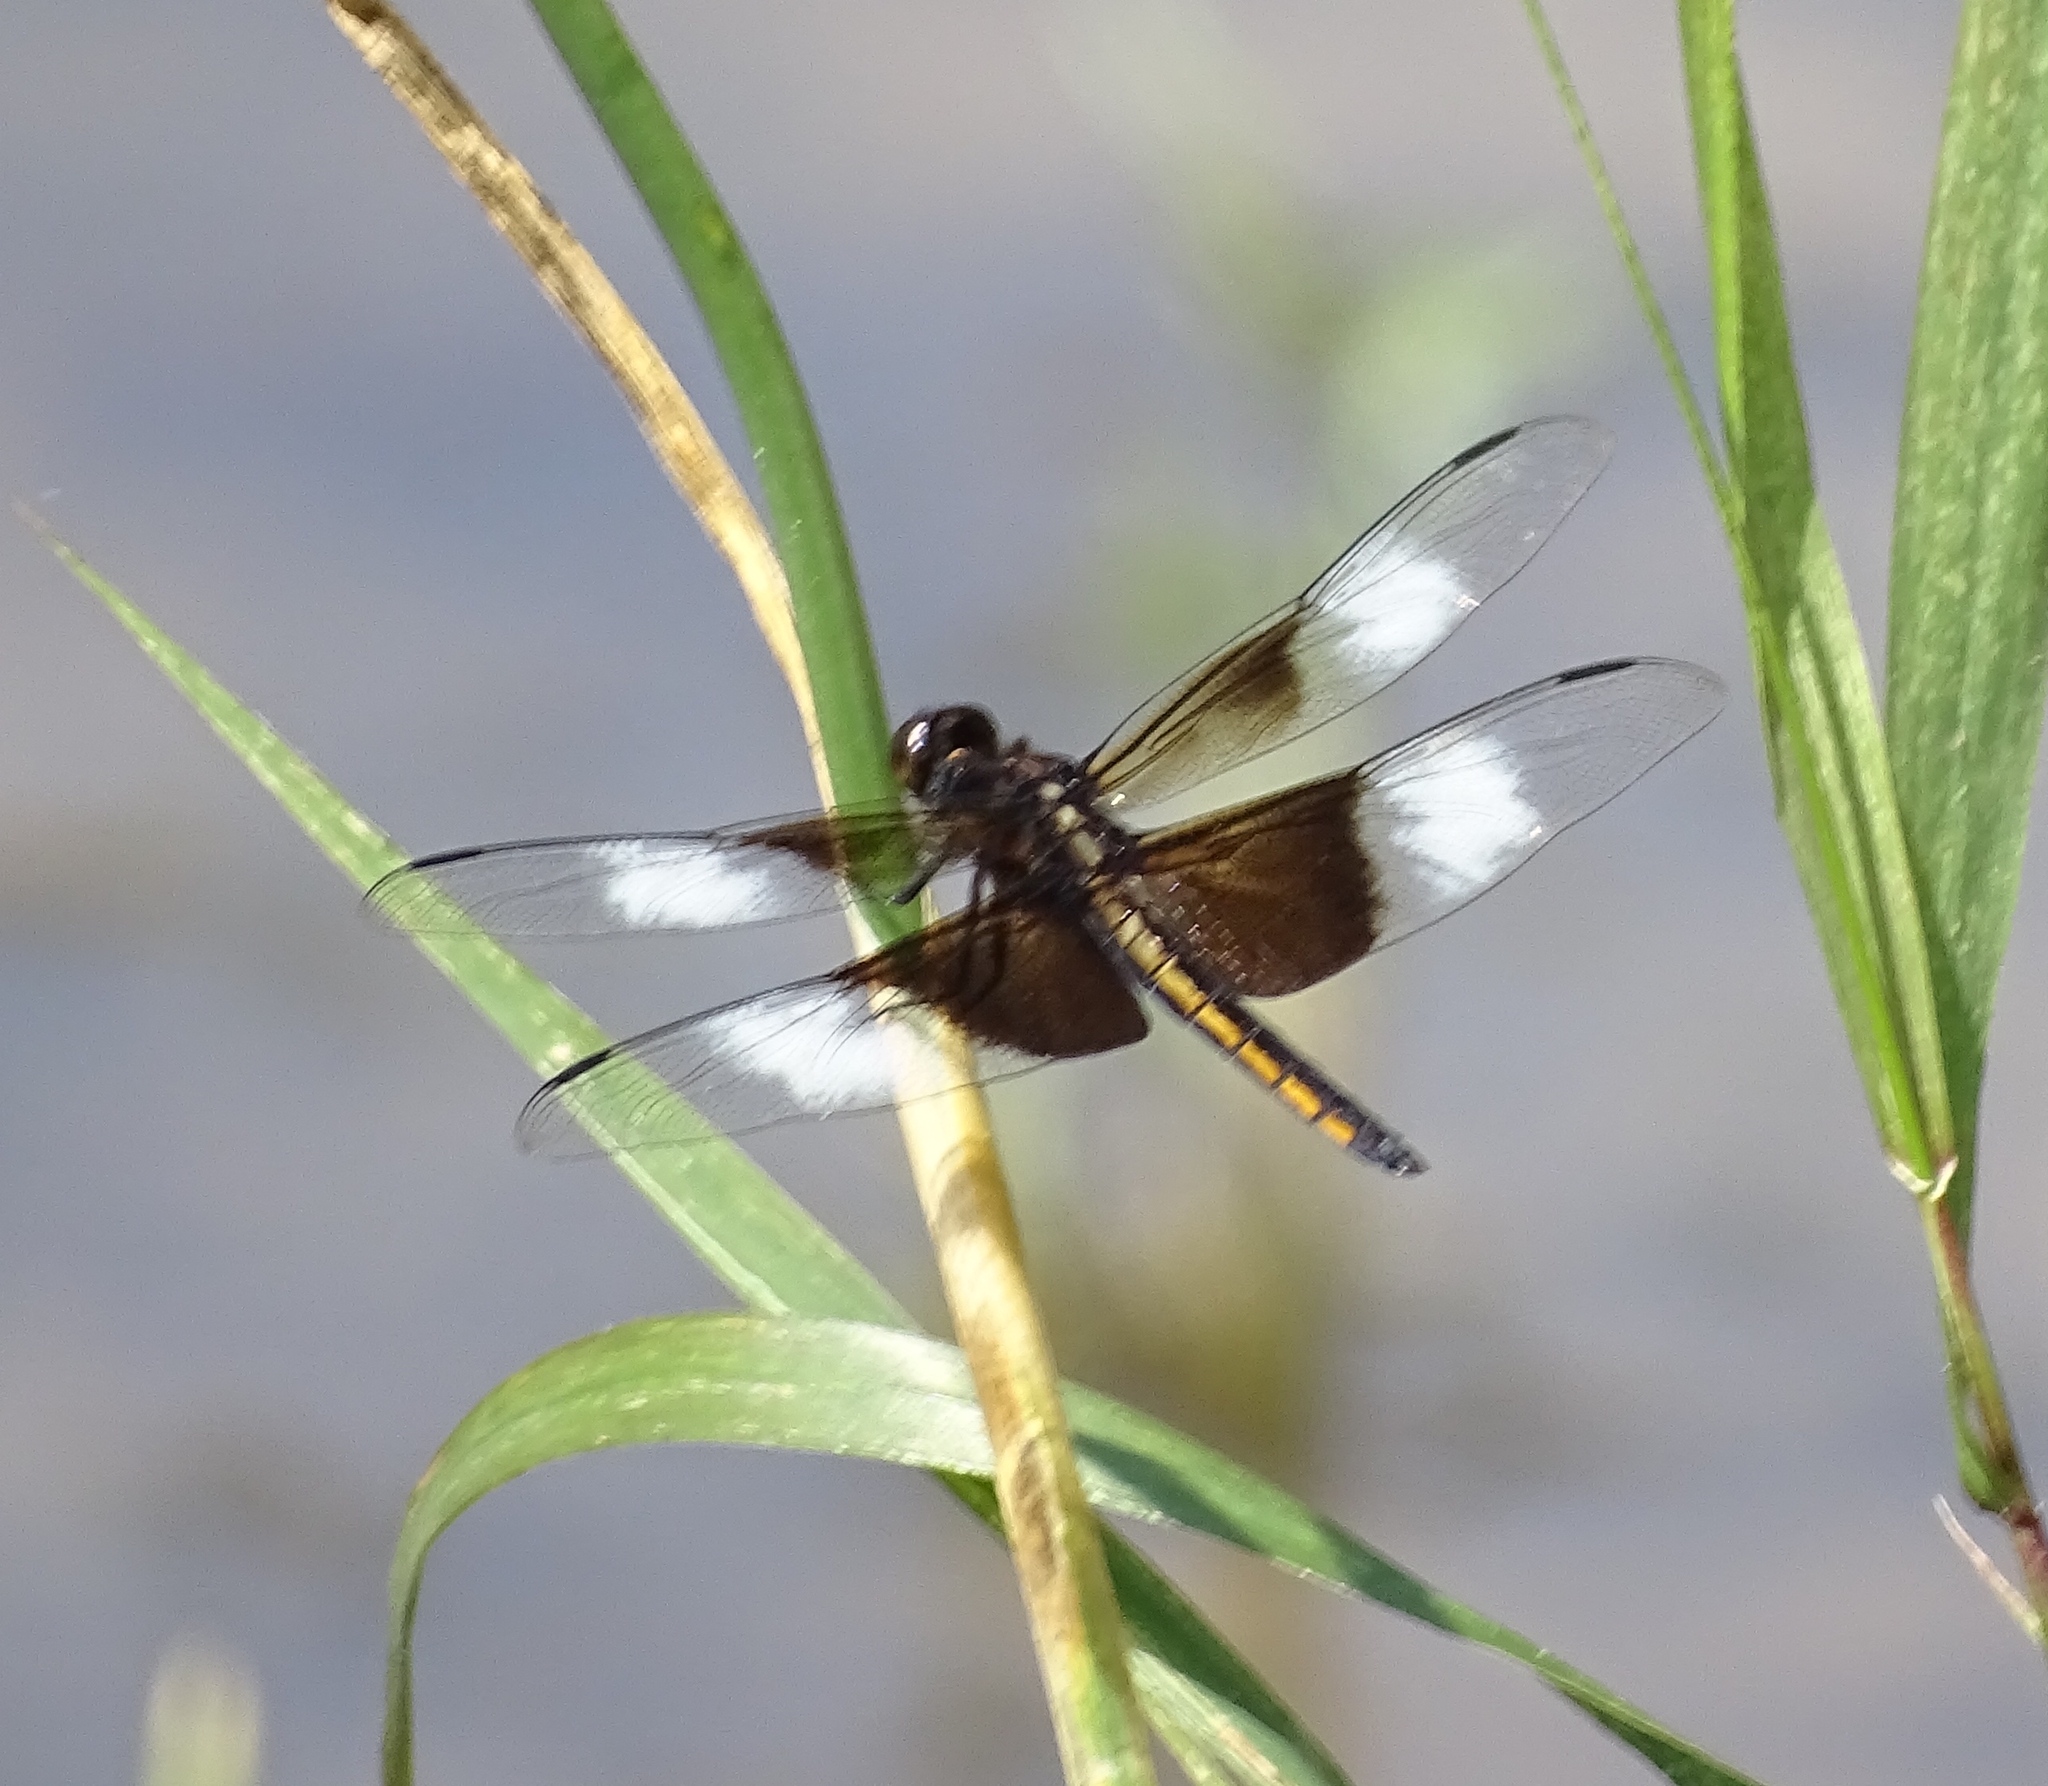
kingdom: Animalia
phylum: Arthropoda
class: Insecta
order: Odonata
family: Libellulidae
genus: Libellula
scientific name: Libellula luctuosa
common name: Widow skimmer
